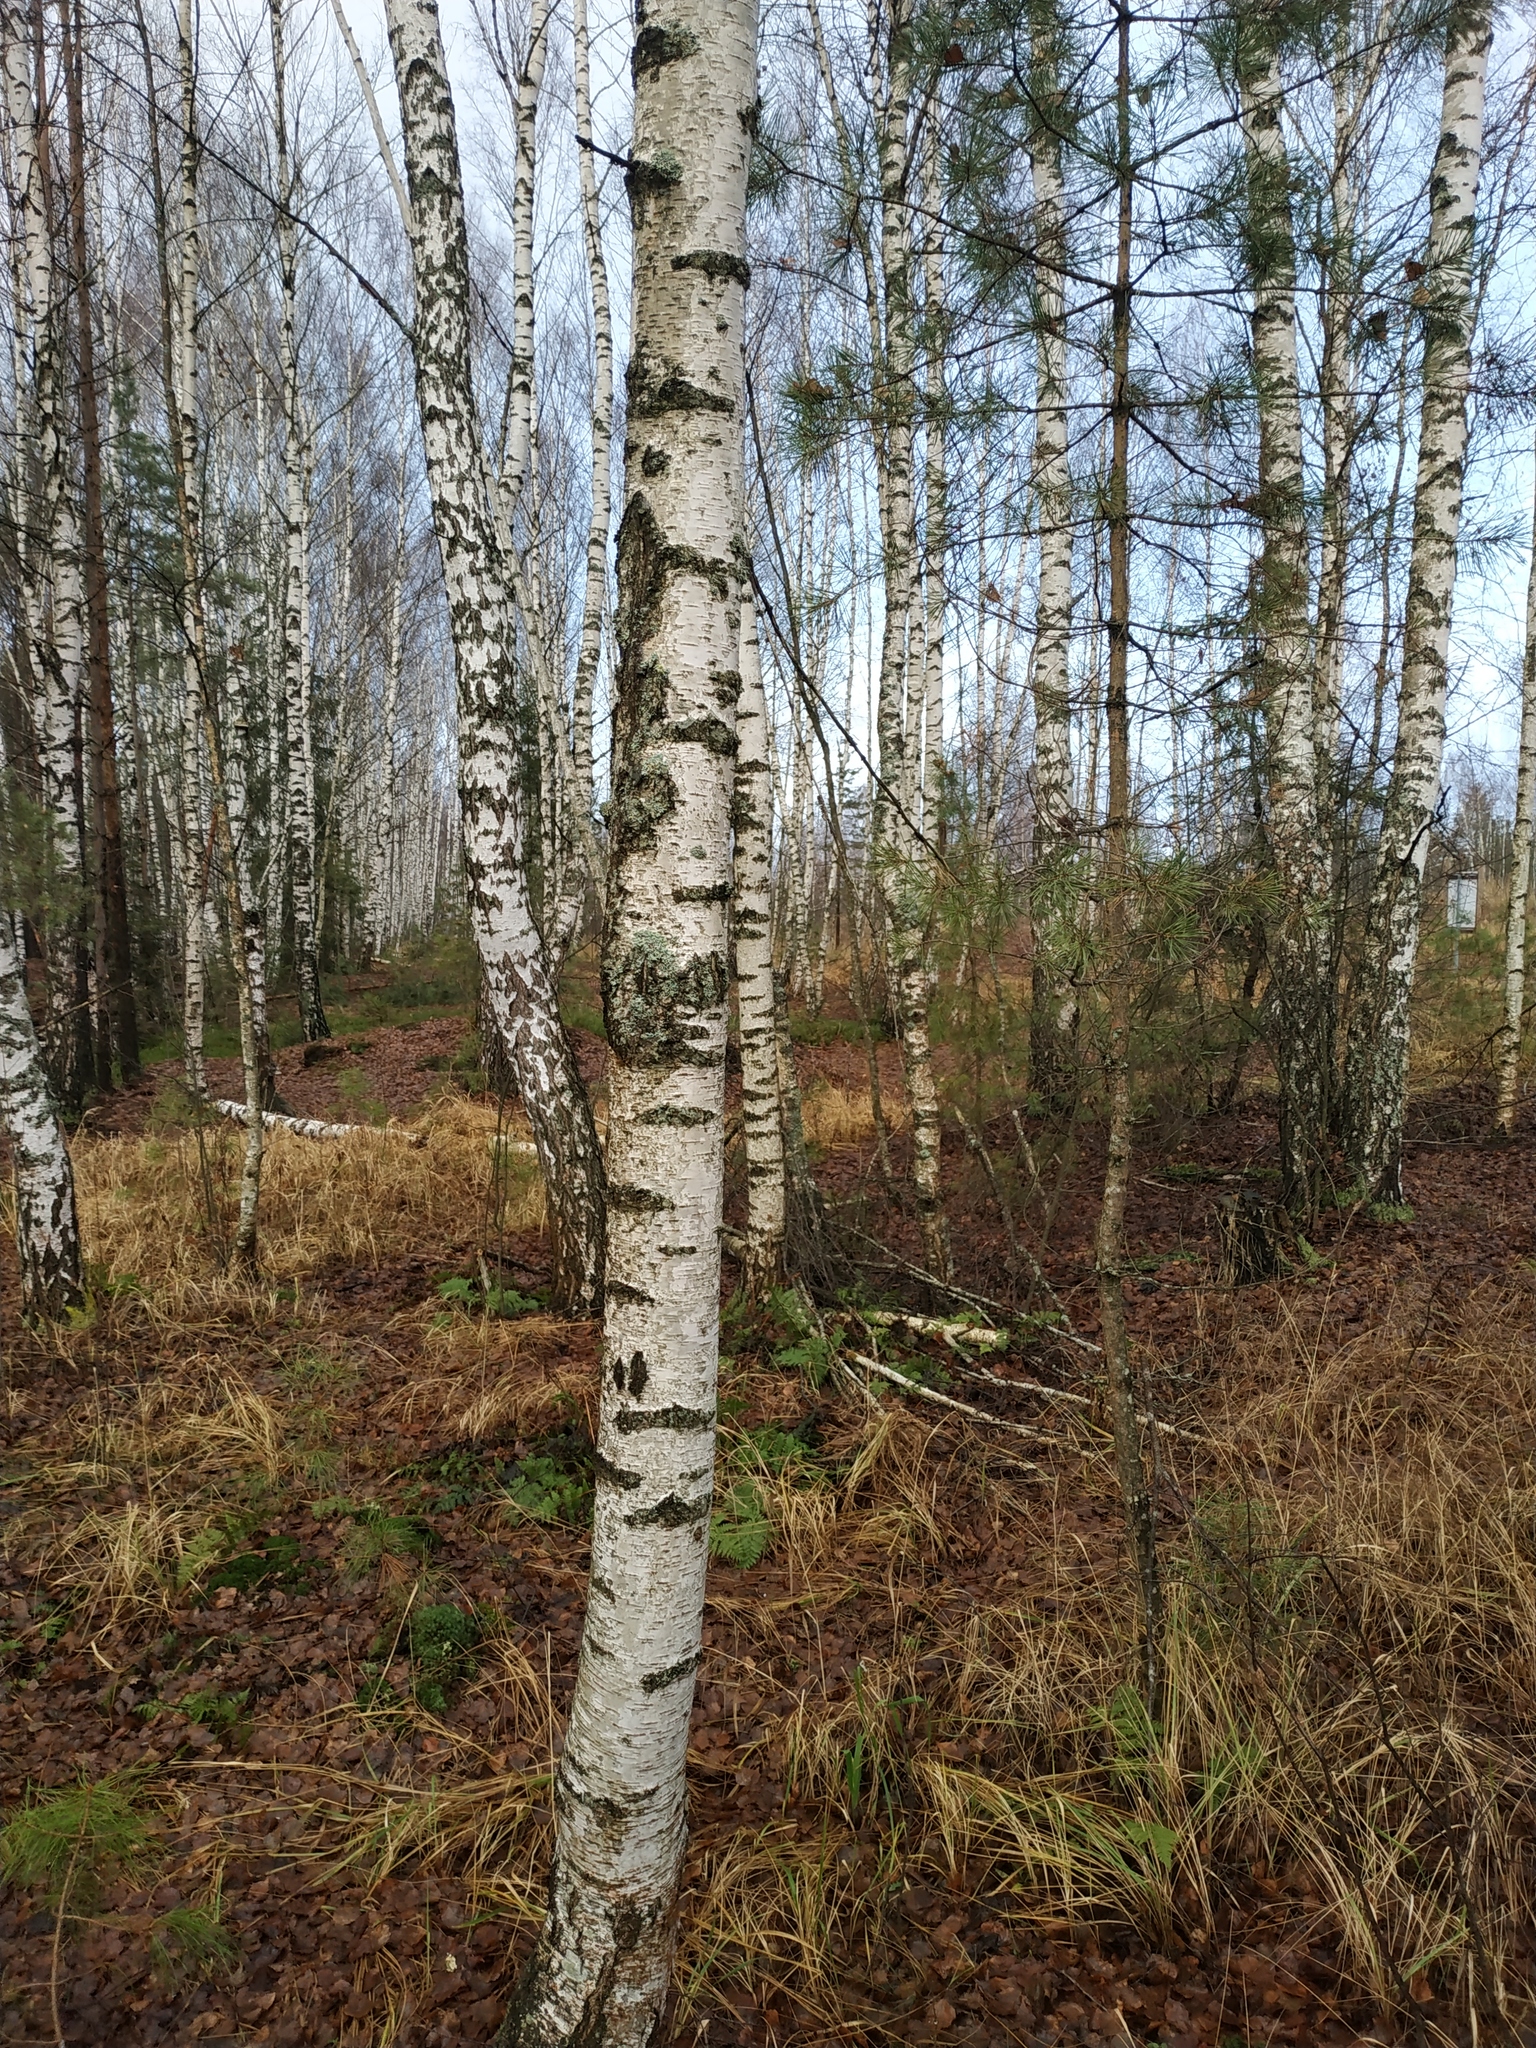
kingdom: Plantae
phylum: Tracheophyta
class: Magnoliopsida
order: Fagales
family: Betulaceae
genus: Betula
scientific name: Betula pendula
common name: Silver birch
